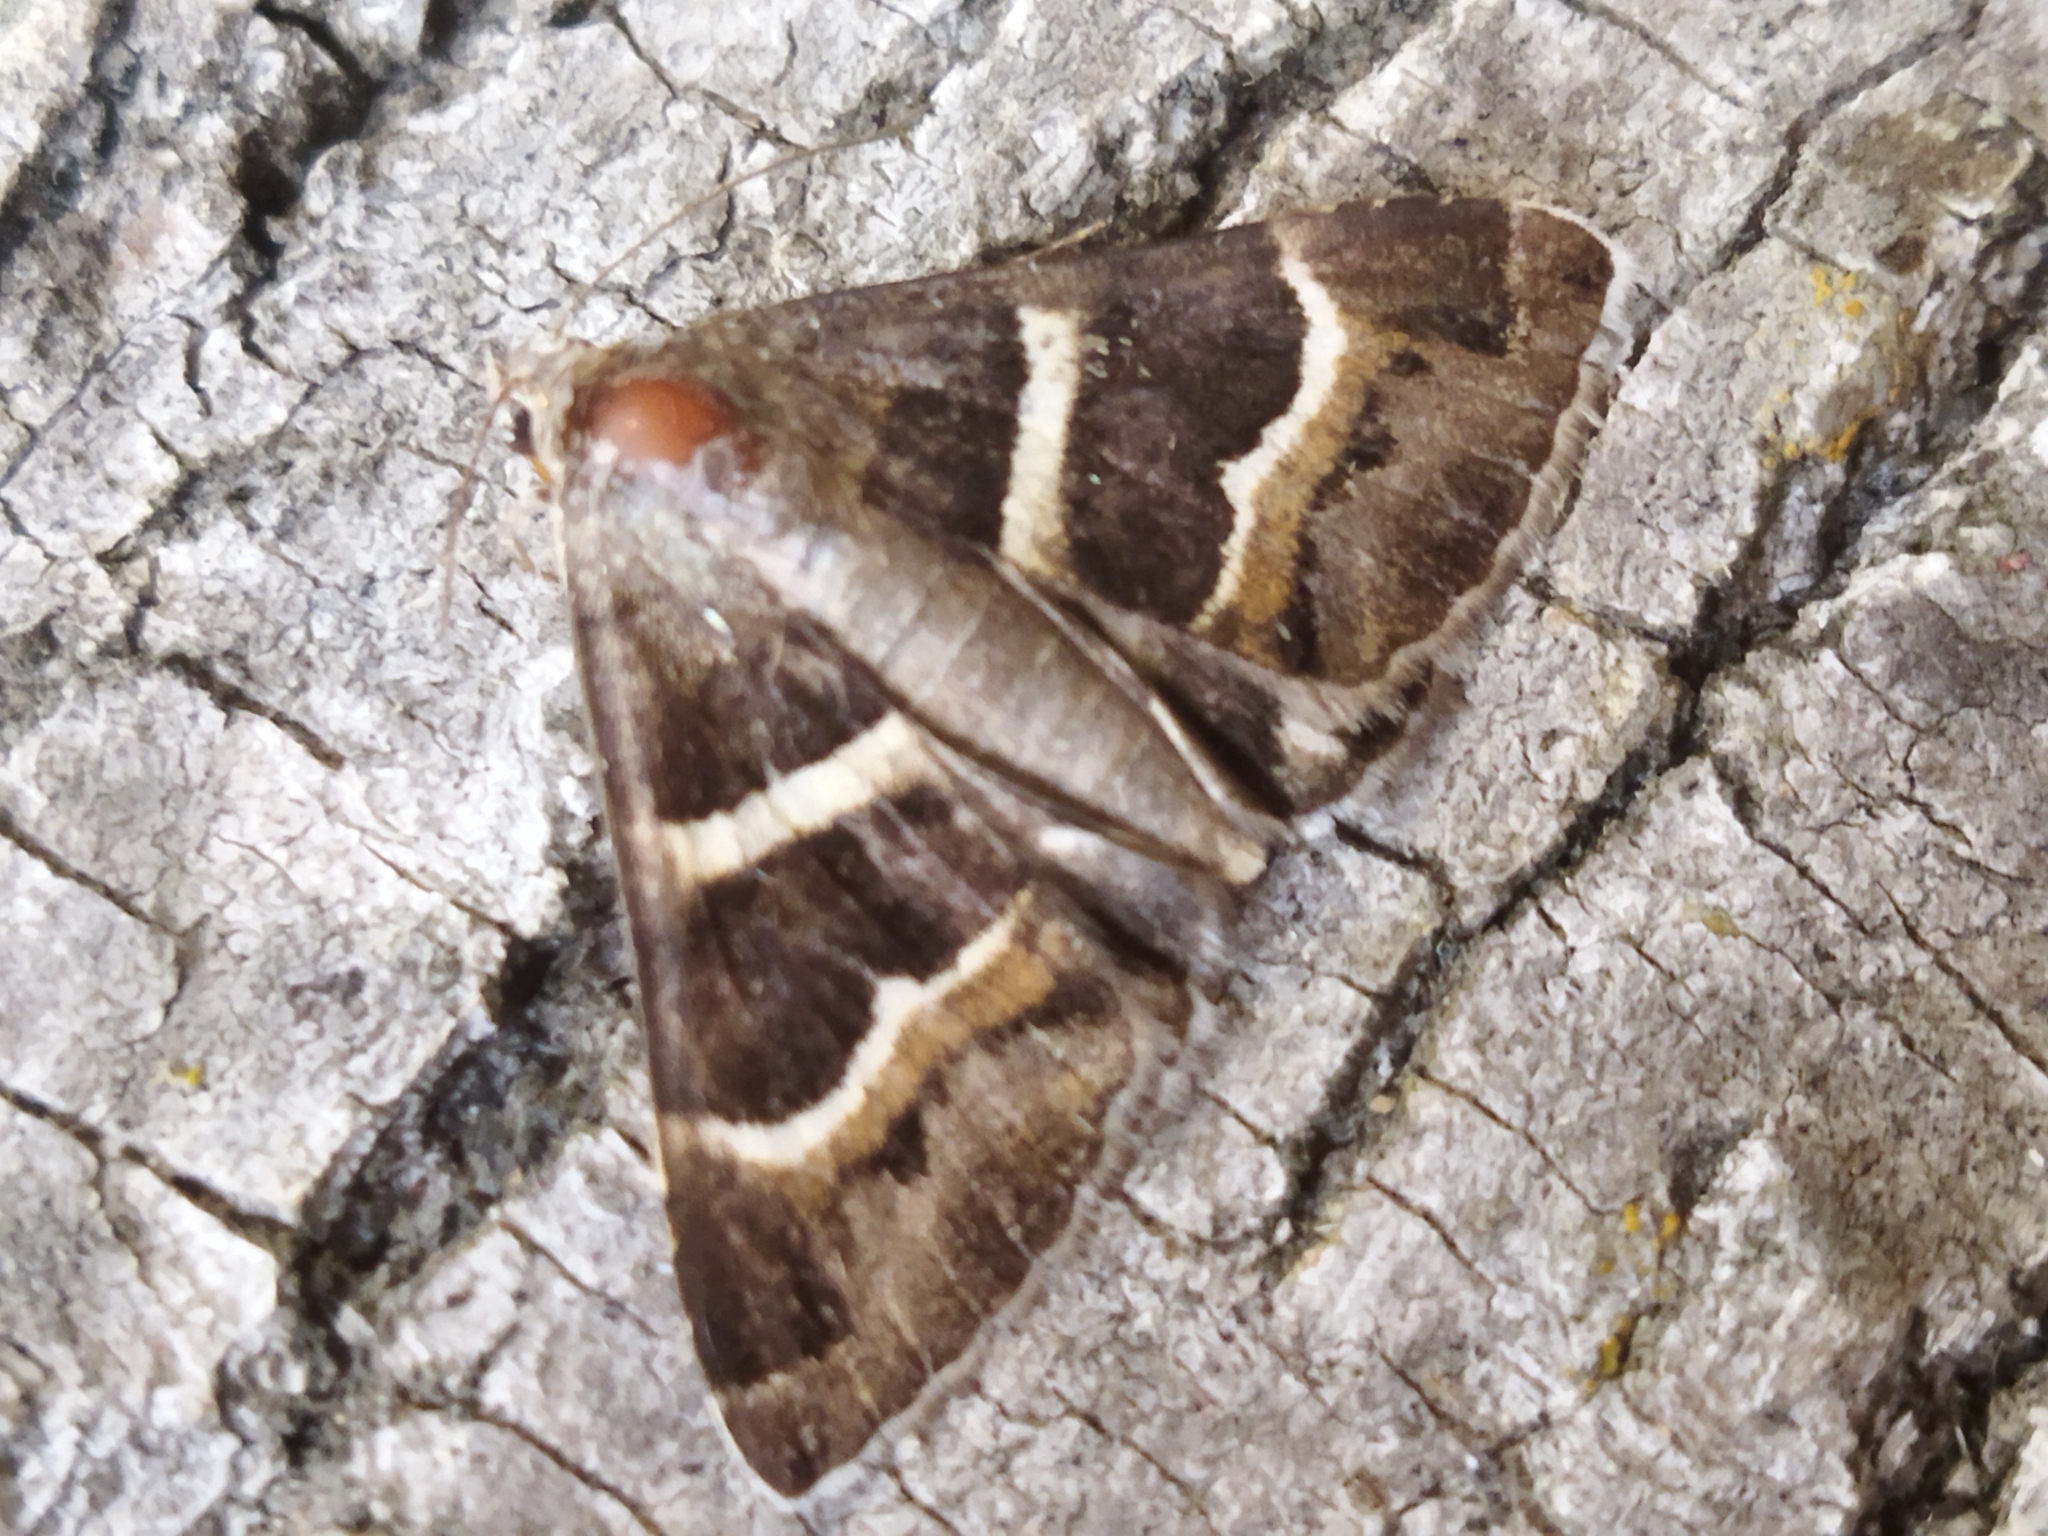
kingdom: Animalia
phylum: Arthropoda
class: Insecta
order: Lepidoptera
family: Erebidae
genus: Grammodes
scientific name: Grammodes stolida
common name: Geometrician
